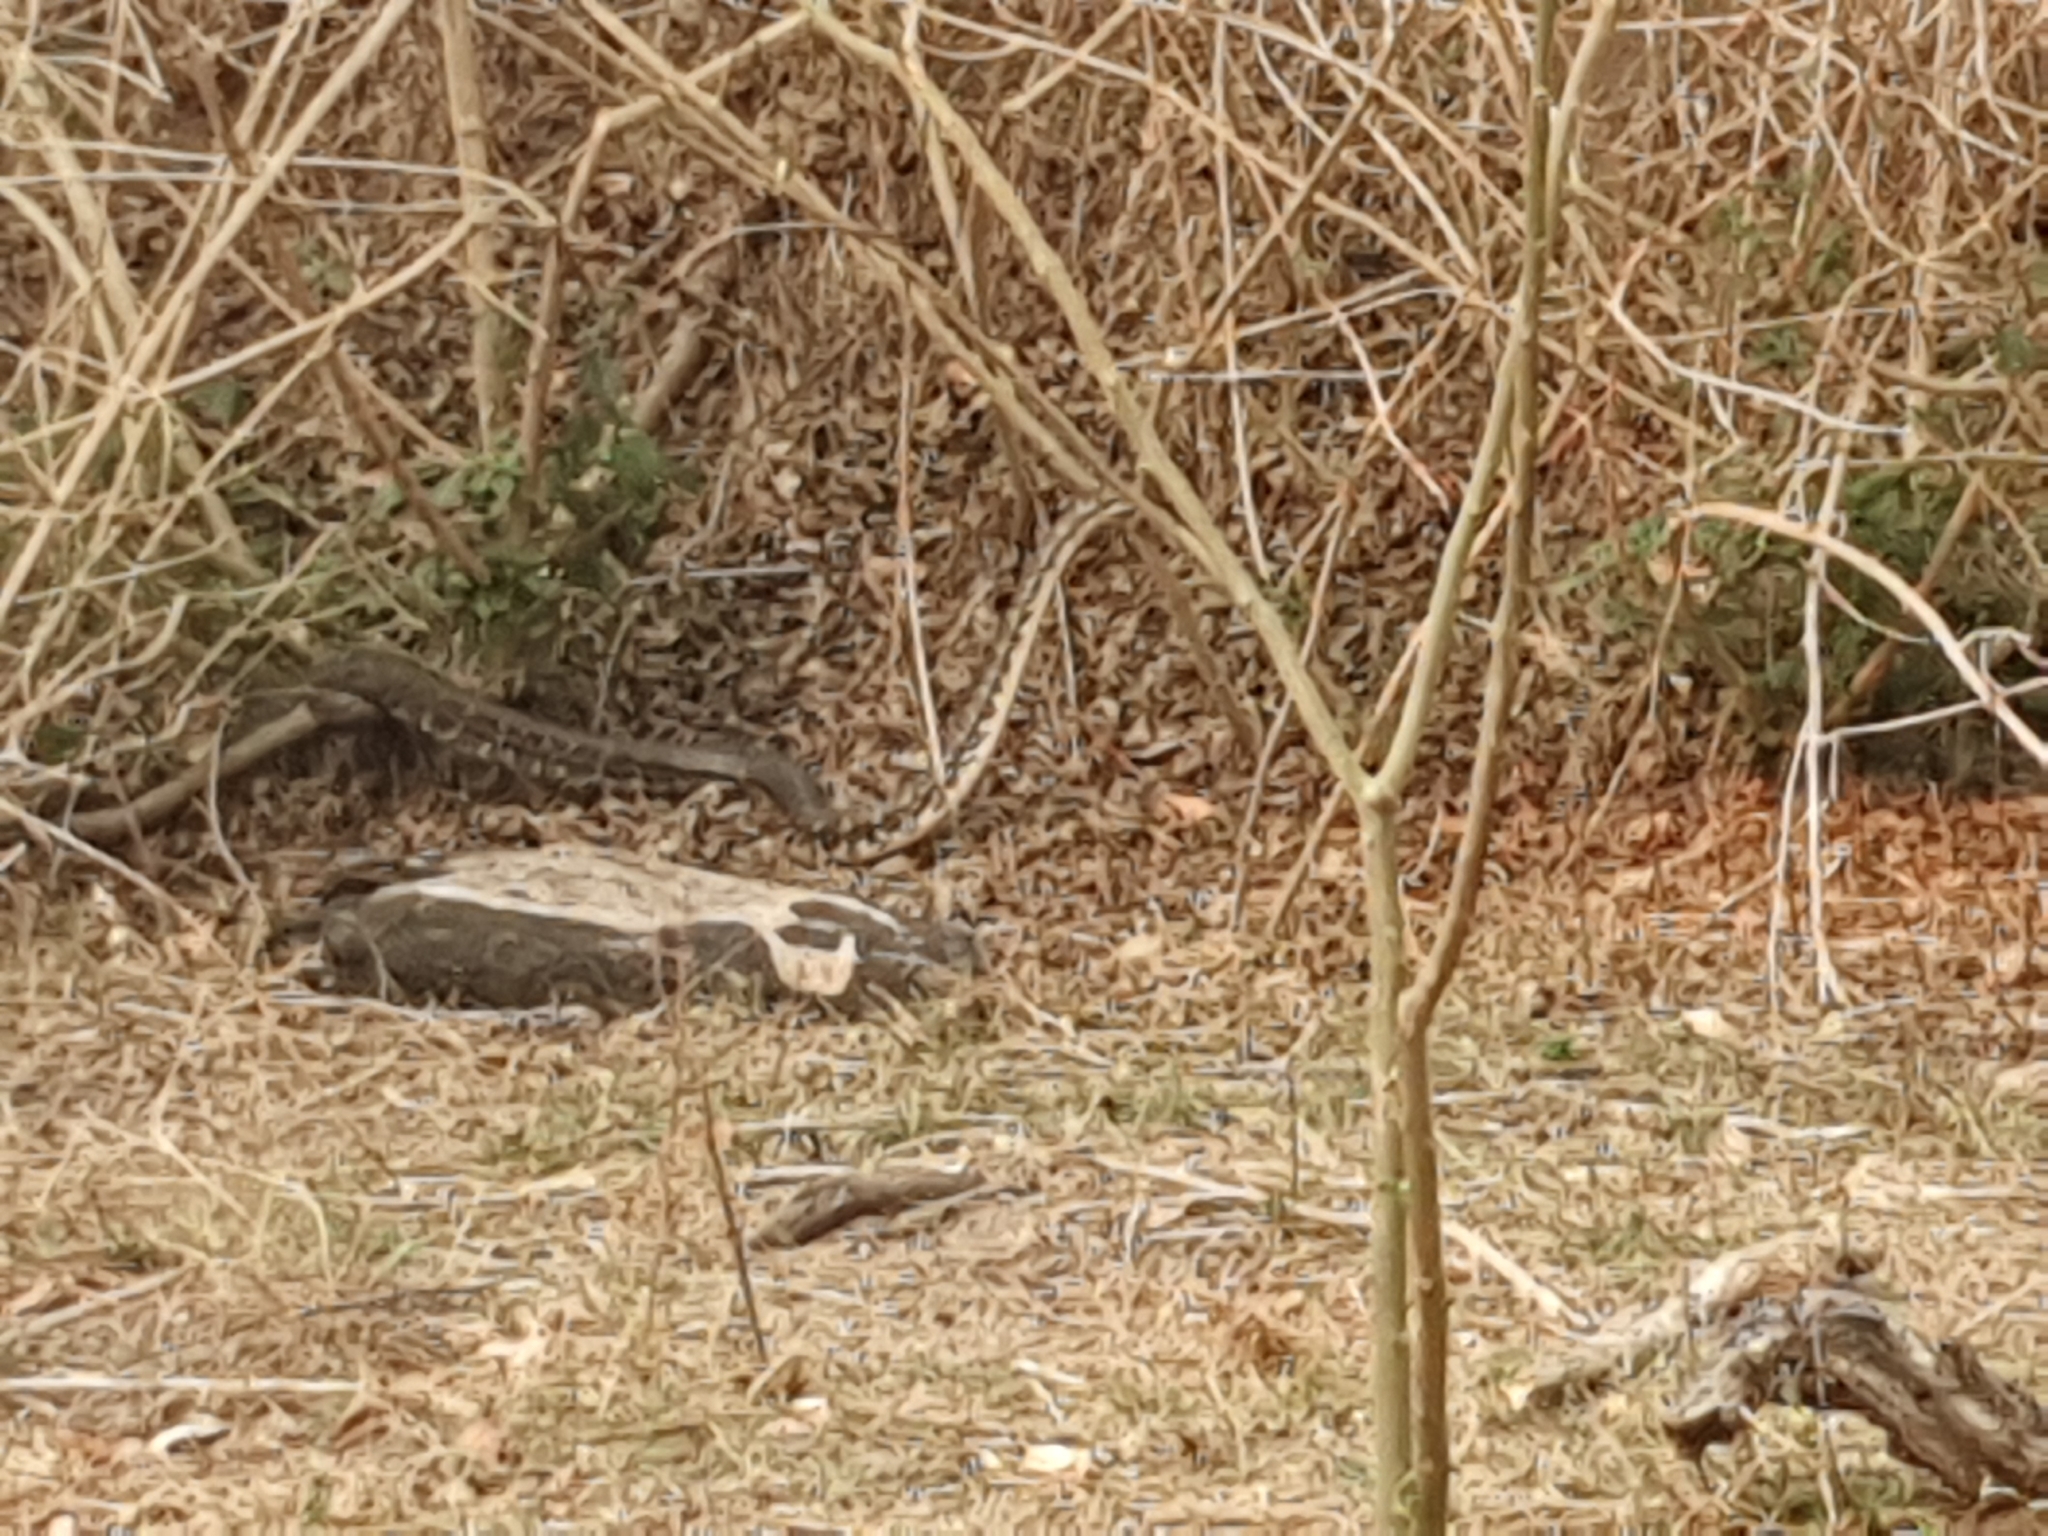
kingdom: Animalia
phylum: Chordata
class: Squamata
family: Pythonidae
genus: Morelia
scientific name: Morelia spilota
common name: Carpet python
